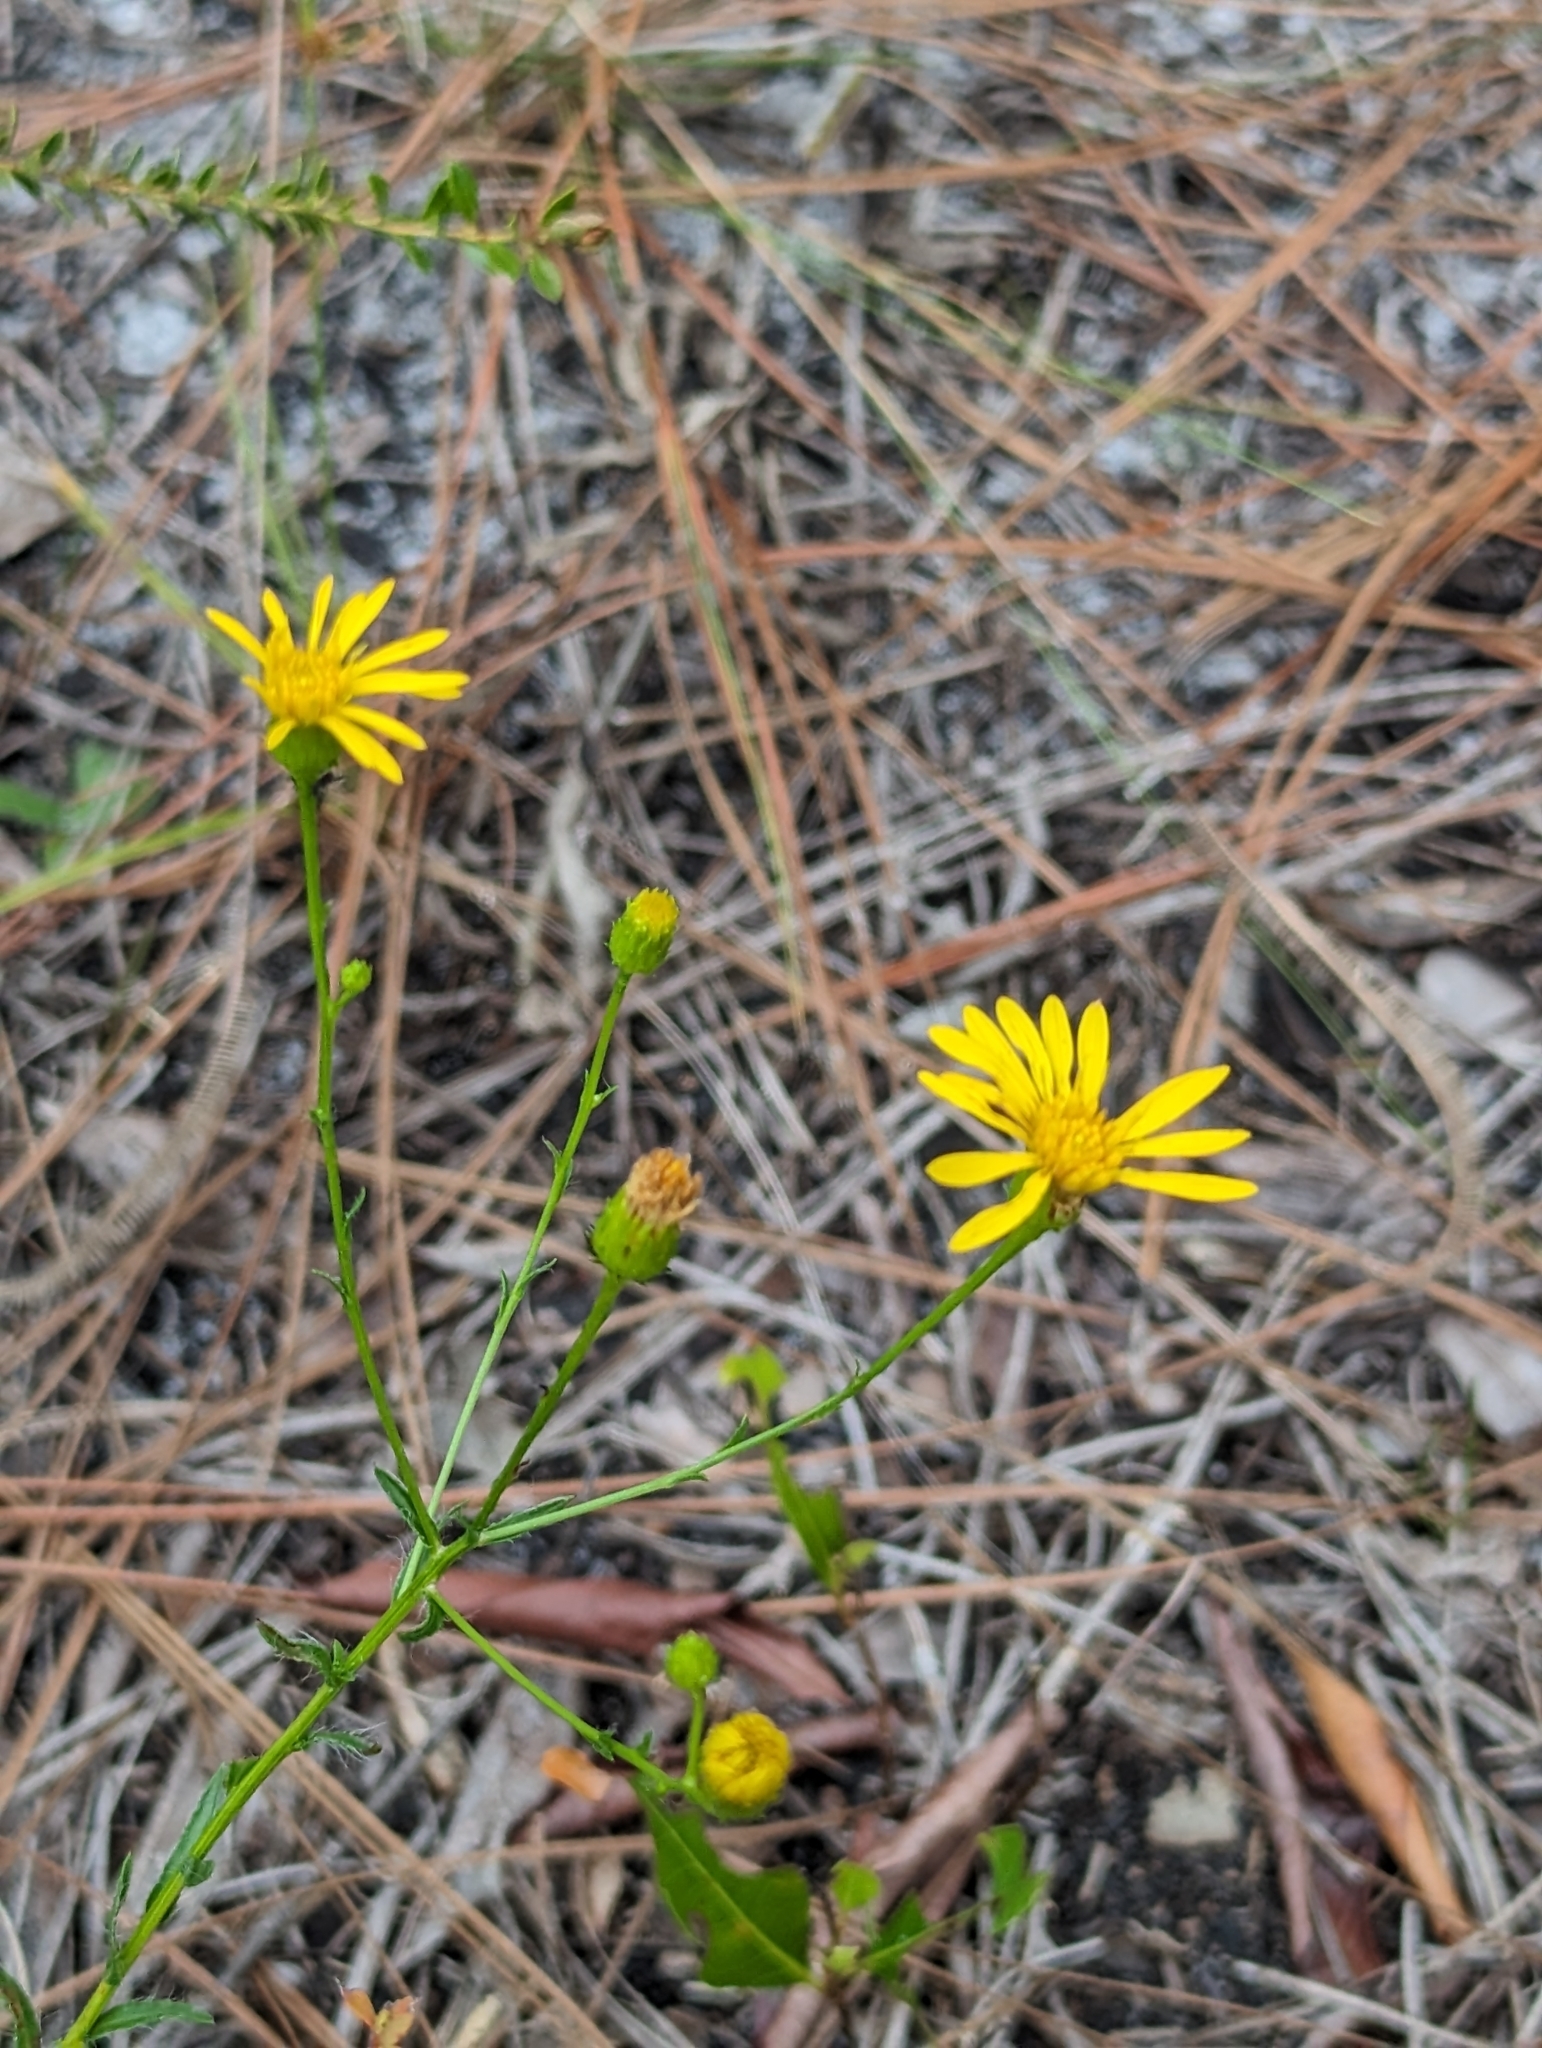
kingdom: Plantae
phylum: Tracheophyta
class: Magnoliopsida
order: Asterales
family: Asteraceae
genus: Chrysopsis
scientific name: Chrysopsis gossypina
